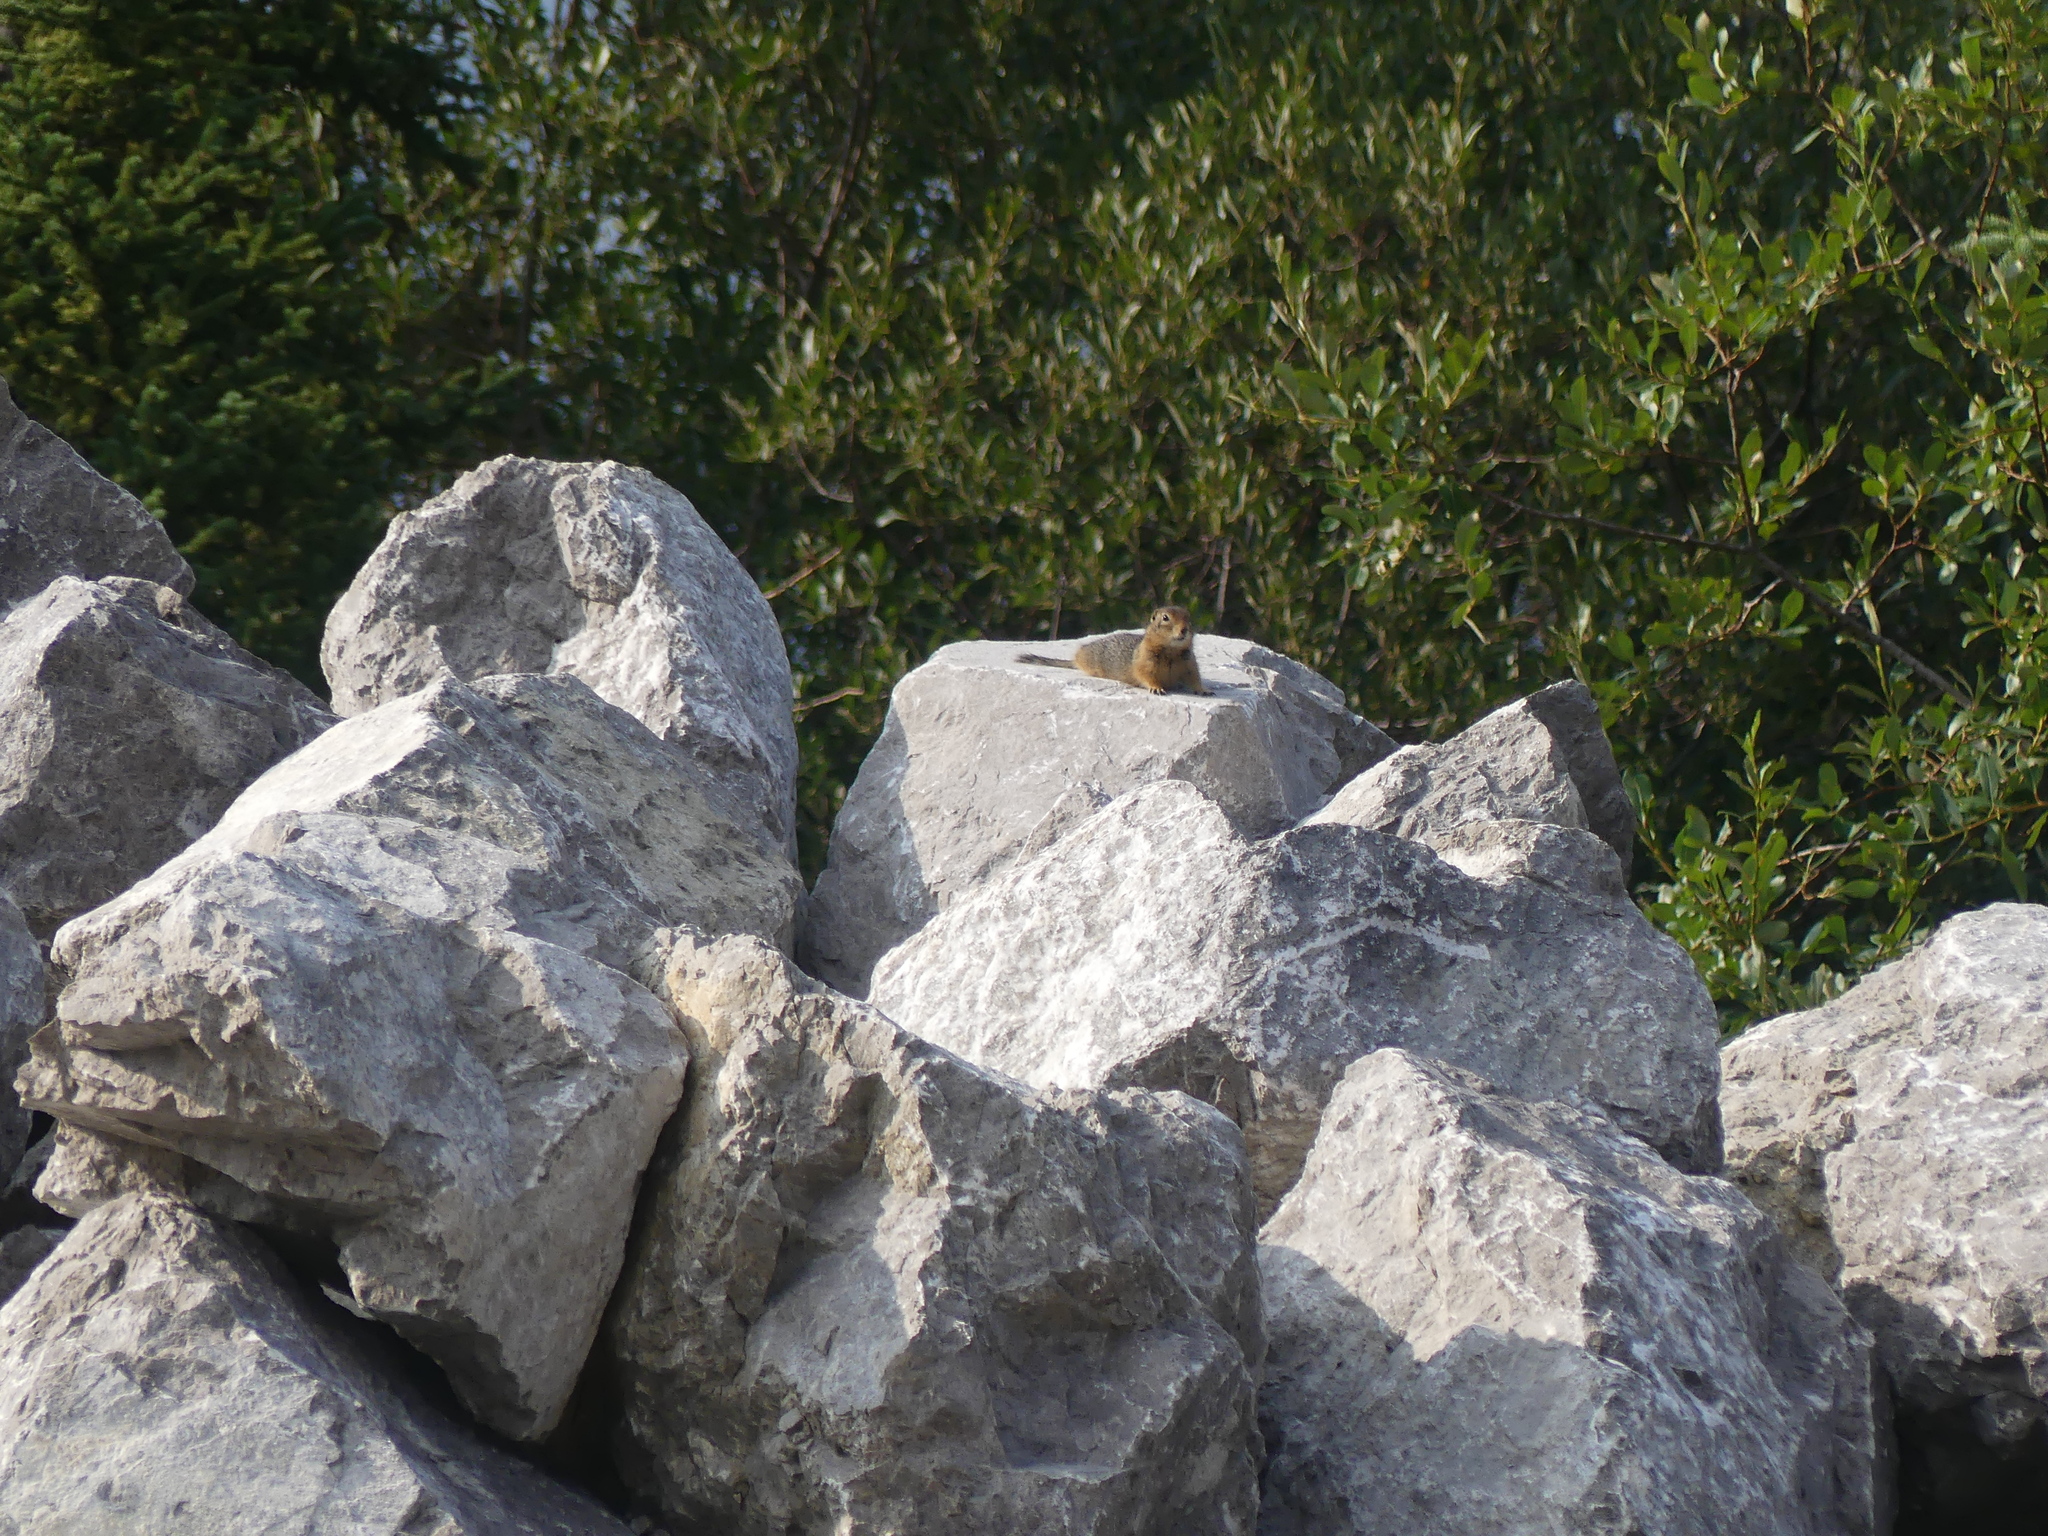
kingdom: Animalia
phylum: Chordata
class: Mammalia
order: Rodentia
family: Sciuridae
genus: Urocitellus
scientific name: Urocitellus parryii
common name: Arctic ground squirrel
